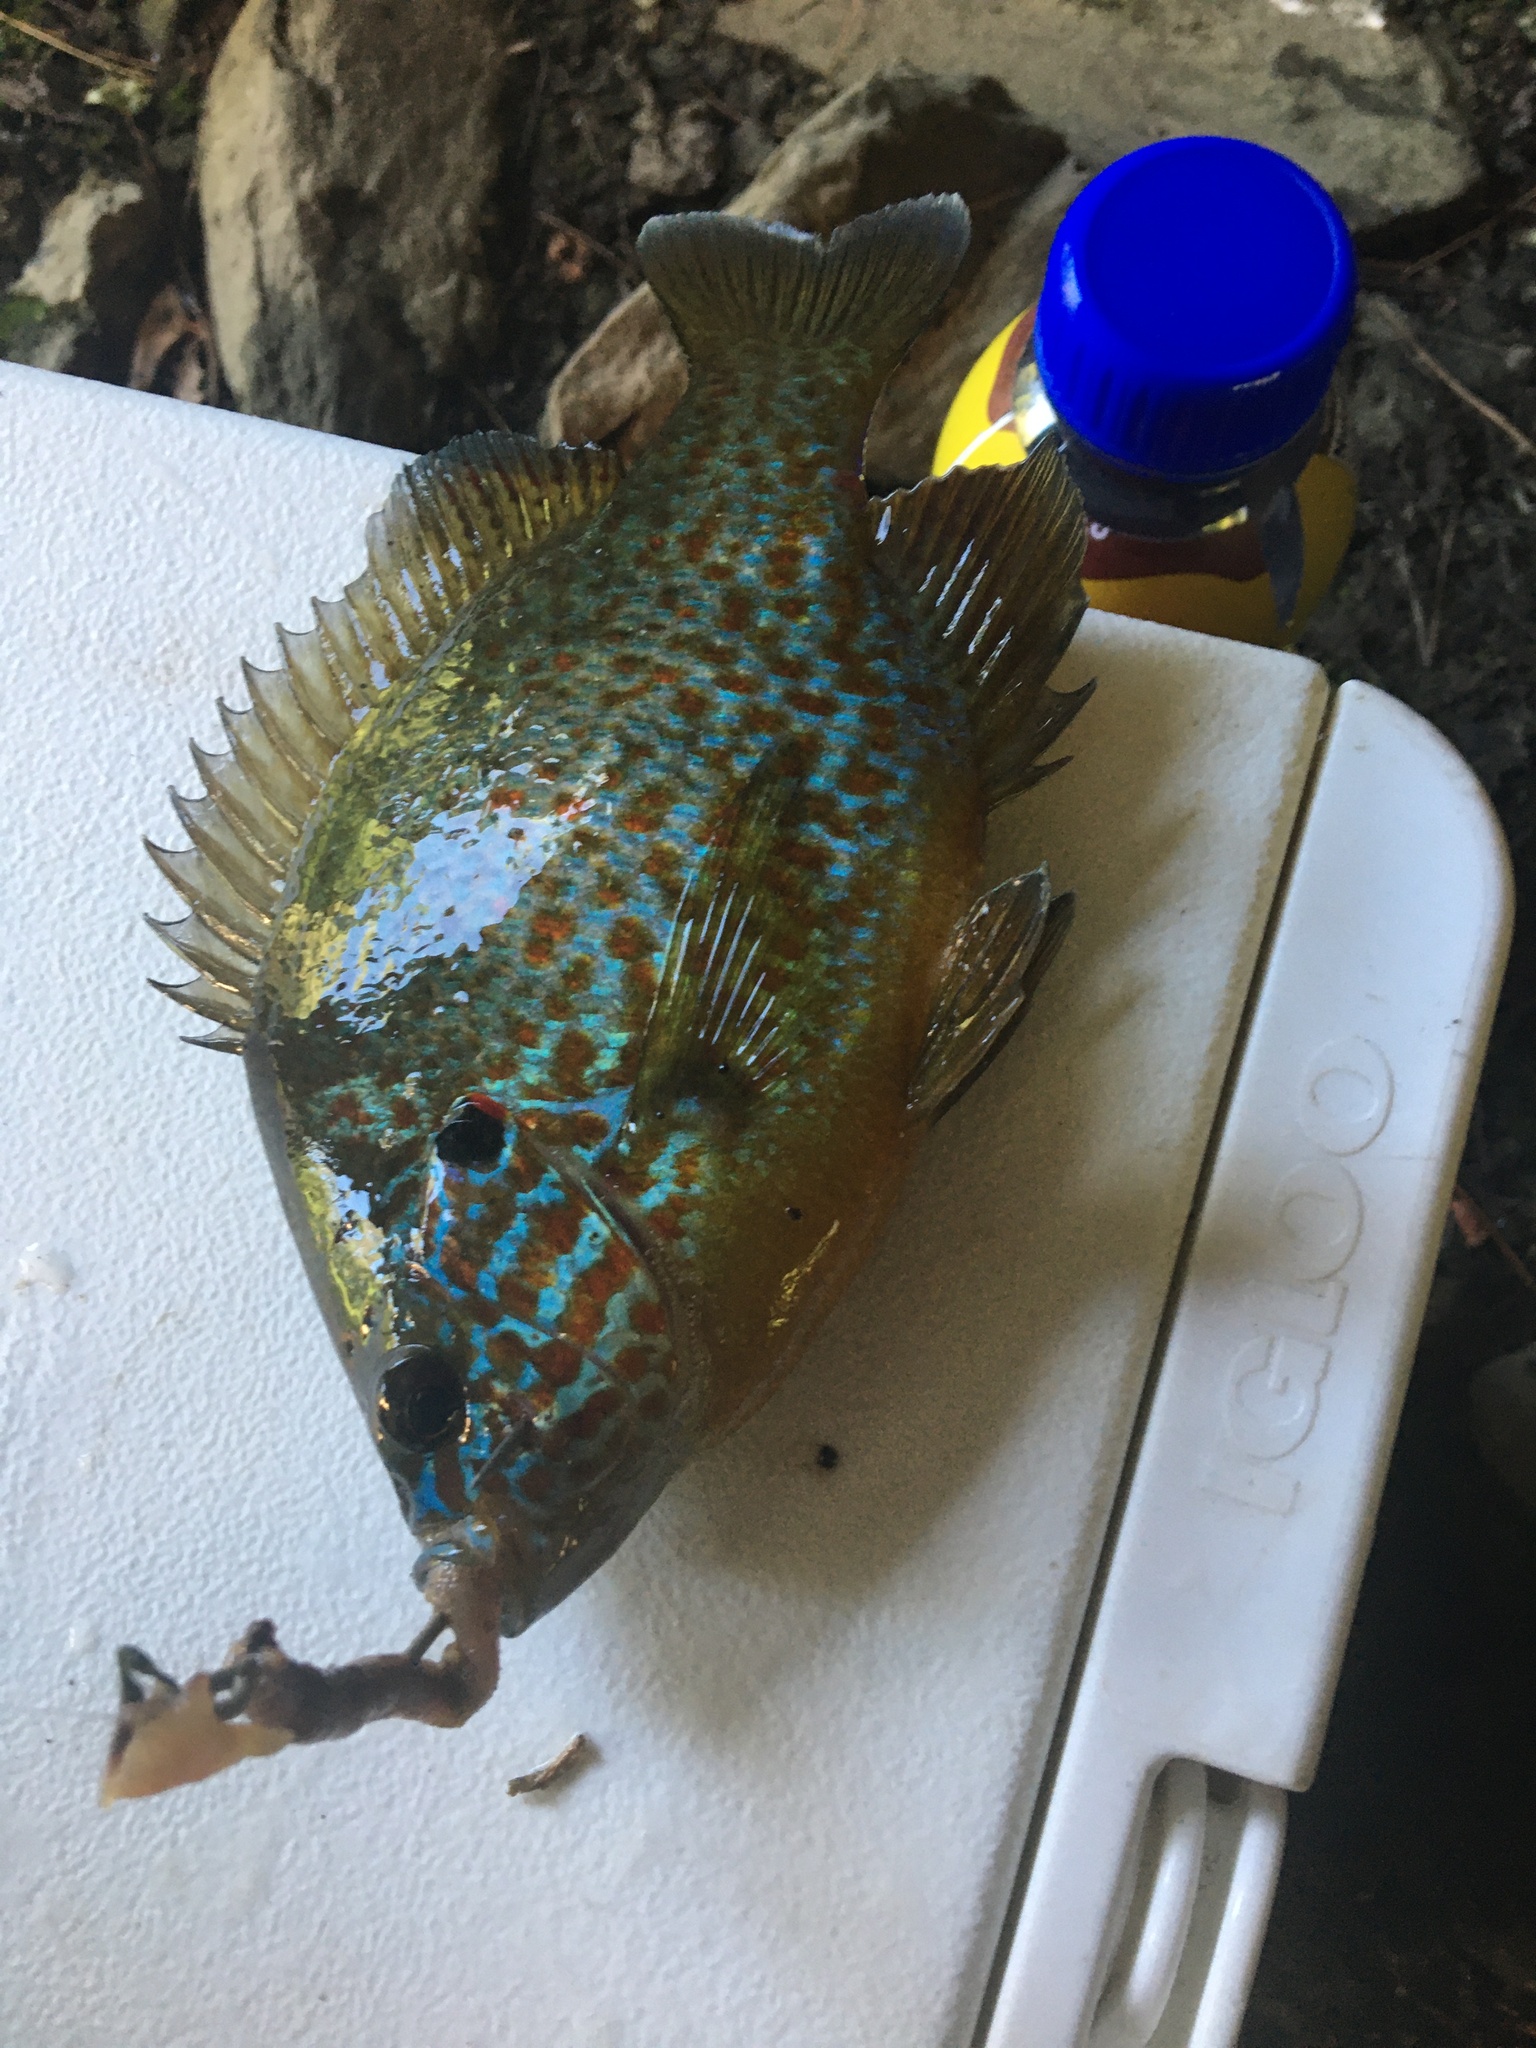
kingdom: Animalia
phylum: Chordata
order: Perciformes
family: Centrarchidae
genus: Lepomis
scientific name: Lepomis gibbosus
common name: Pumpkinseed
